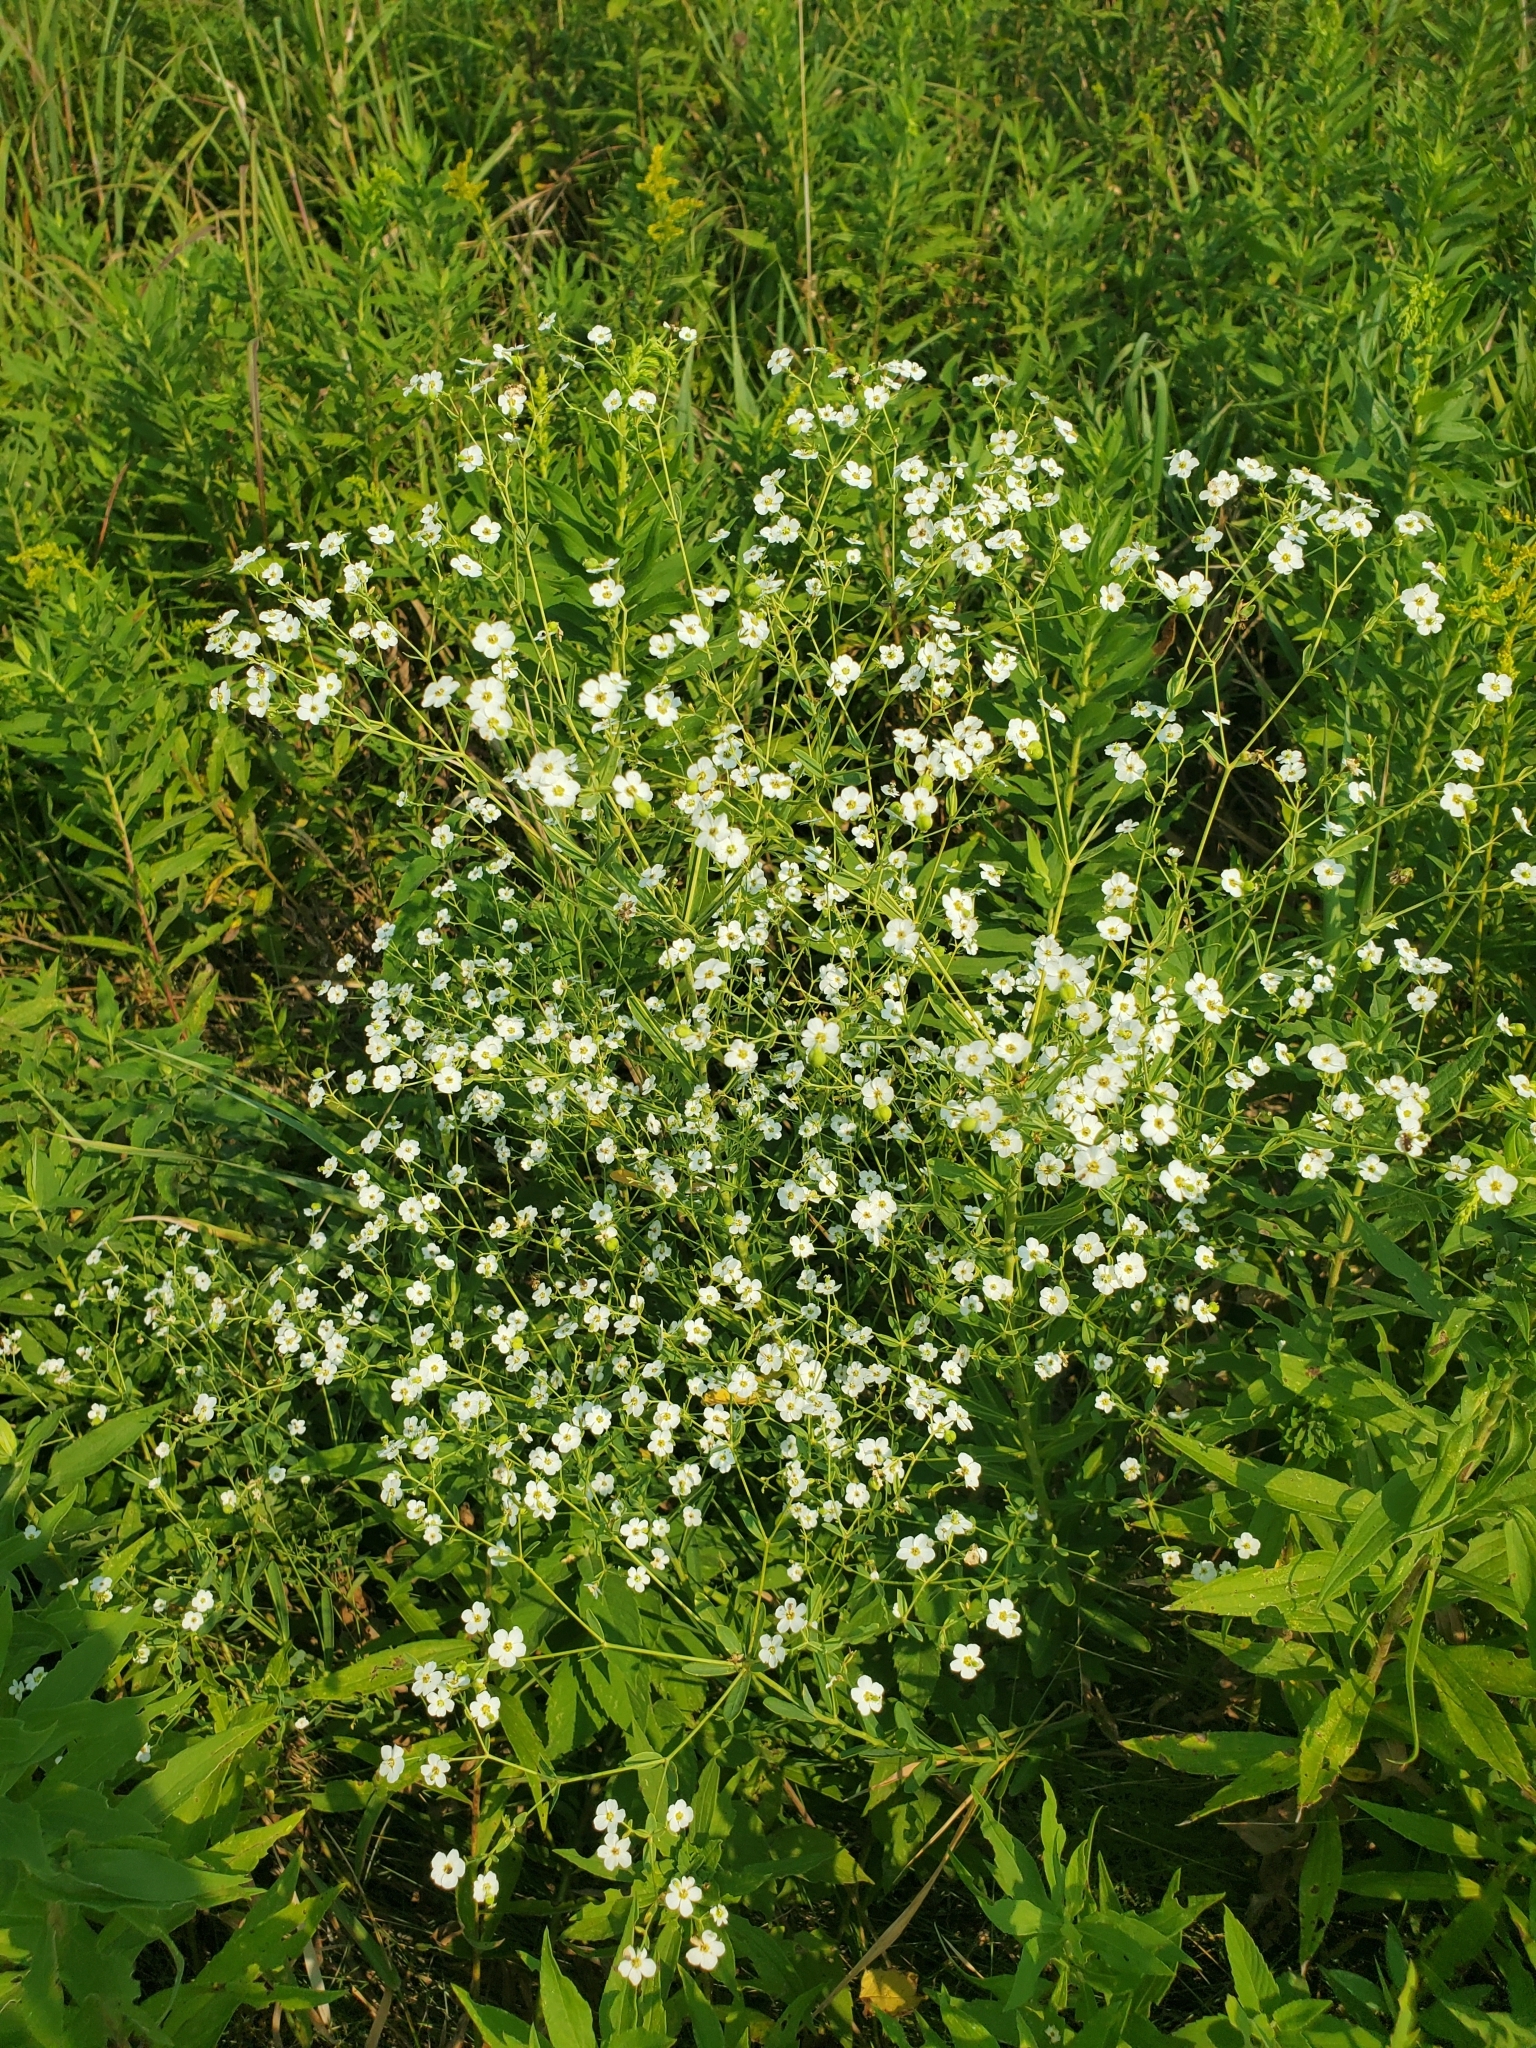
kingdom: Plantae
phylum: Tracheophyta
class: Magnoliopsida
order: Malpighiales
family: Euphorbiaceae
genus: Euphorbia
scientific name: Euphorbia corollata
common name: Flowering spurge
